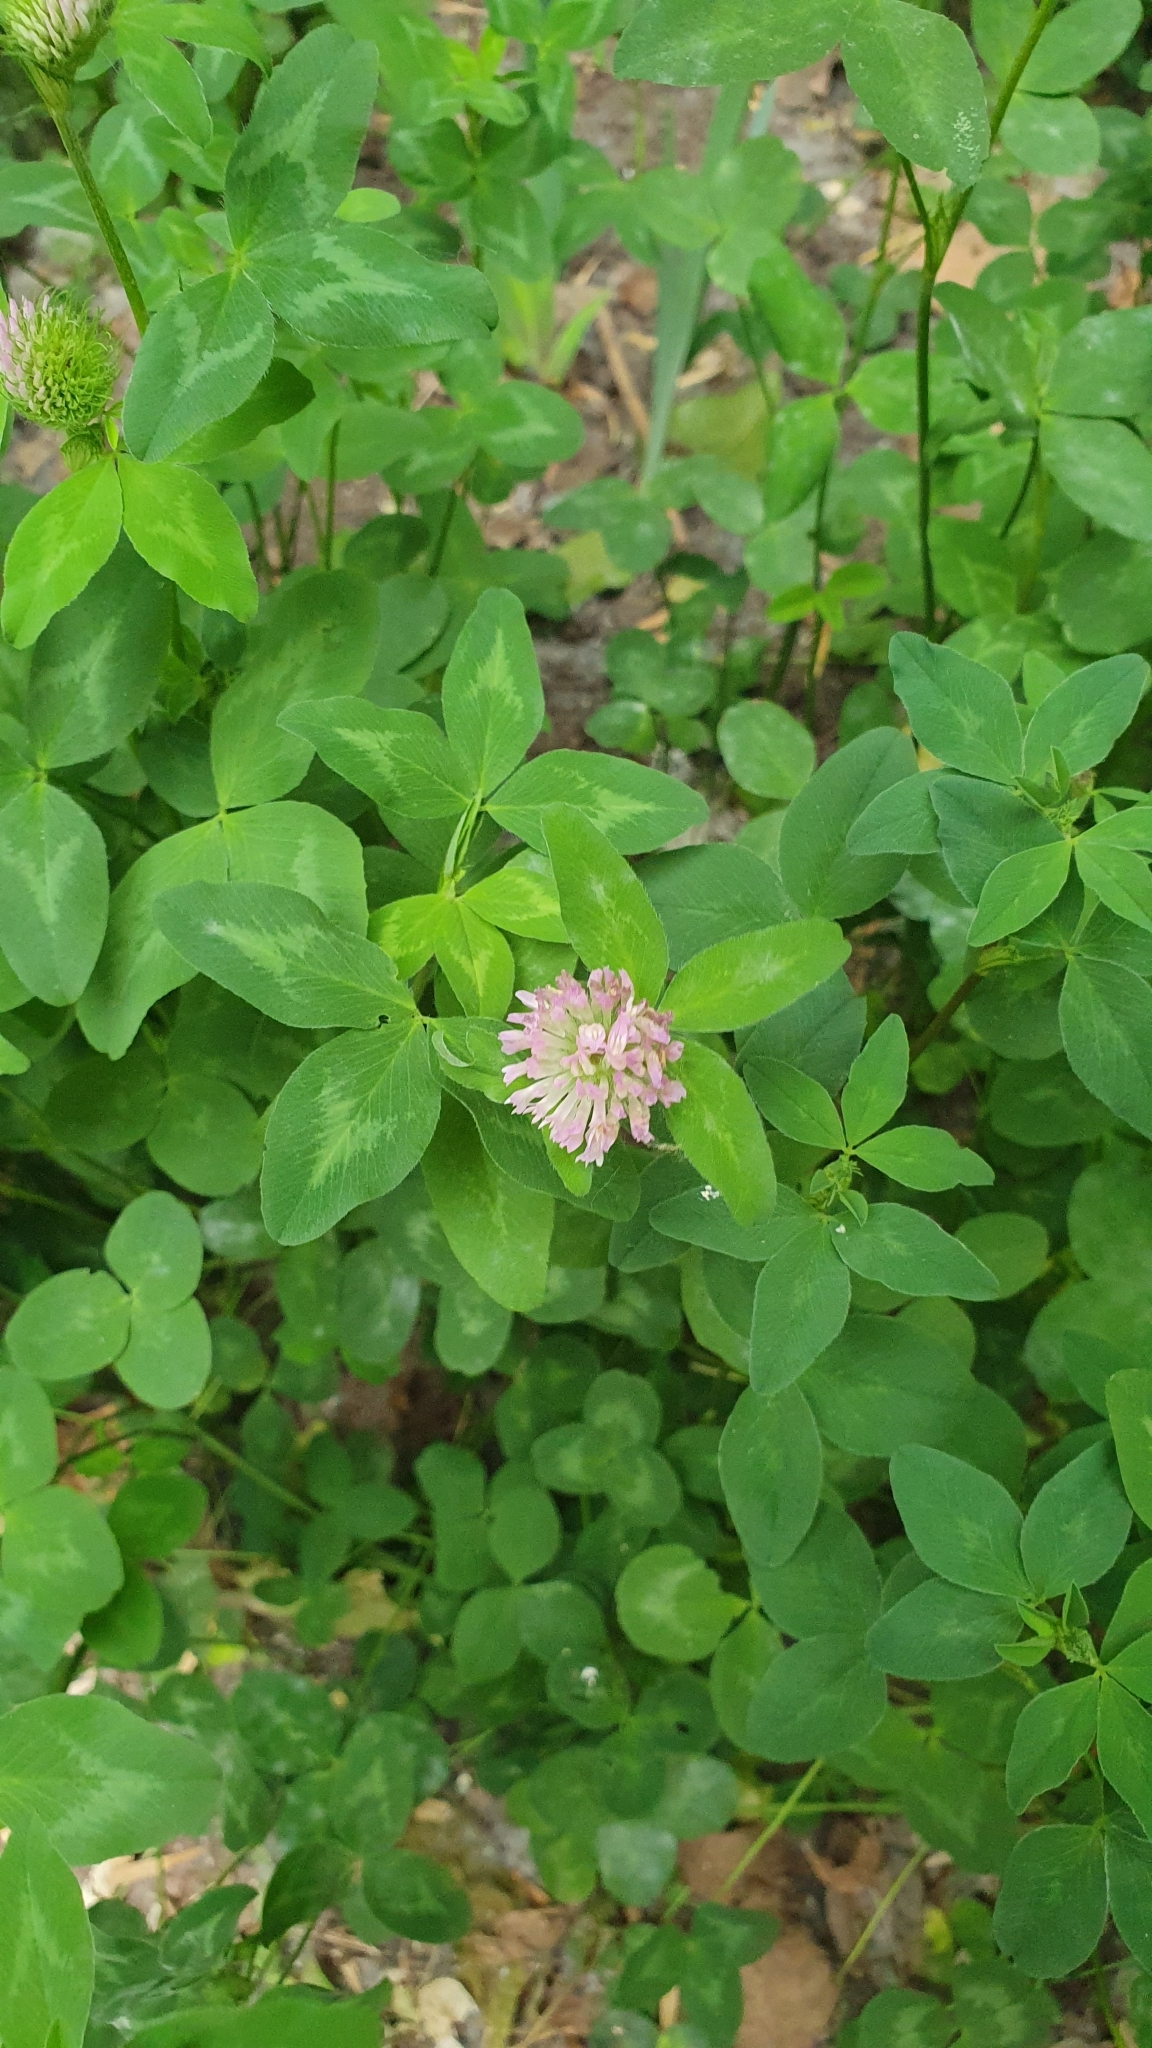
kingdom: Plantae
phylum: Tracheophyta
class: Magnoliopsida
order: Fabales
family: Fabaceae
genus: Trifolium
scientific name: Trifolium pratense
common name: Red clover
